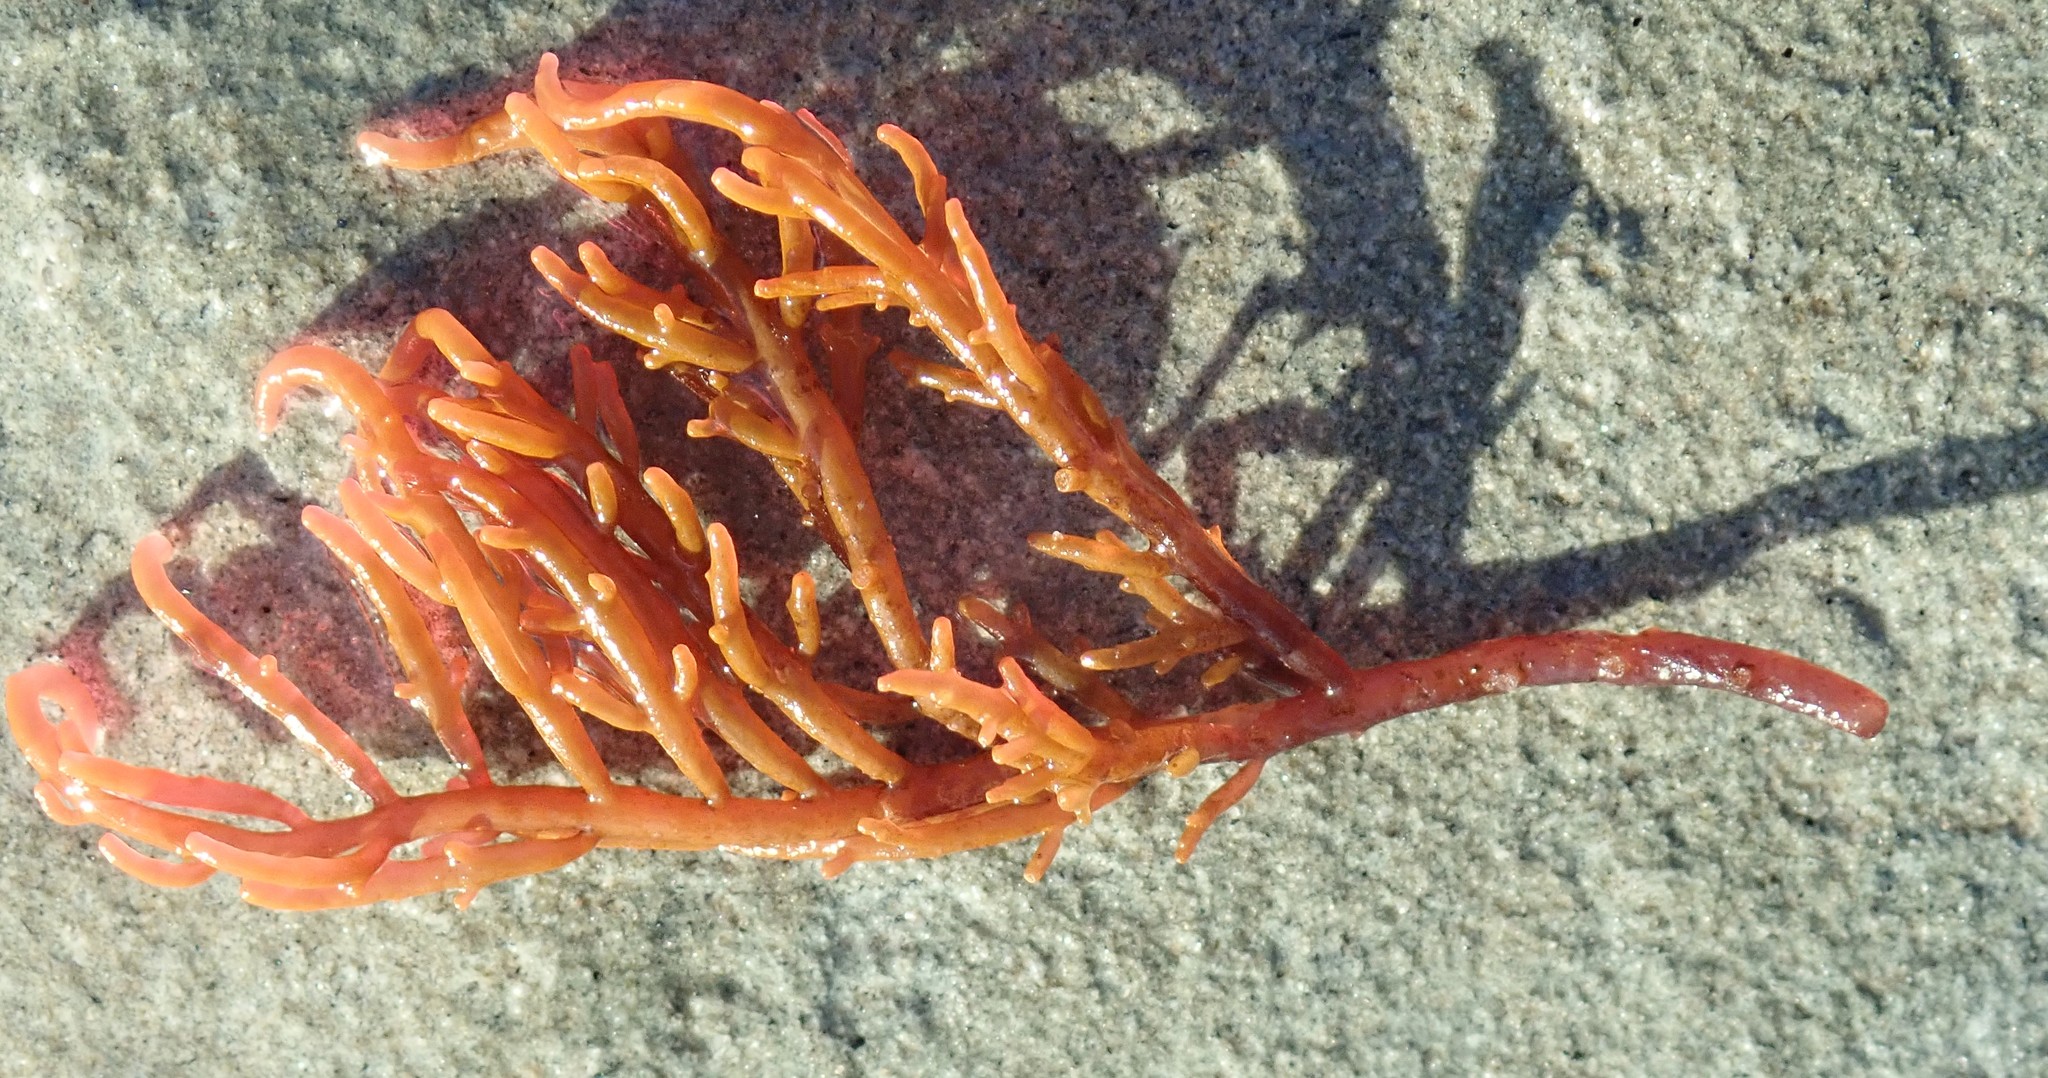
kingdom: Plantae
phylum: Rhodophyta
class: Florideophyceae
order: Gigartinales
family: Solieriaceae
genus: Sarcodiotheca
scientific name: Sarcodiotheca gaudichaudii
